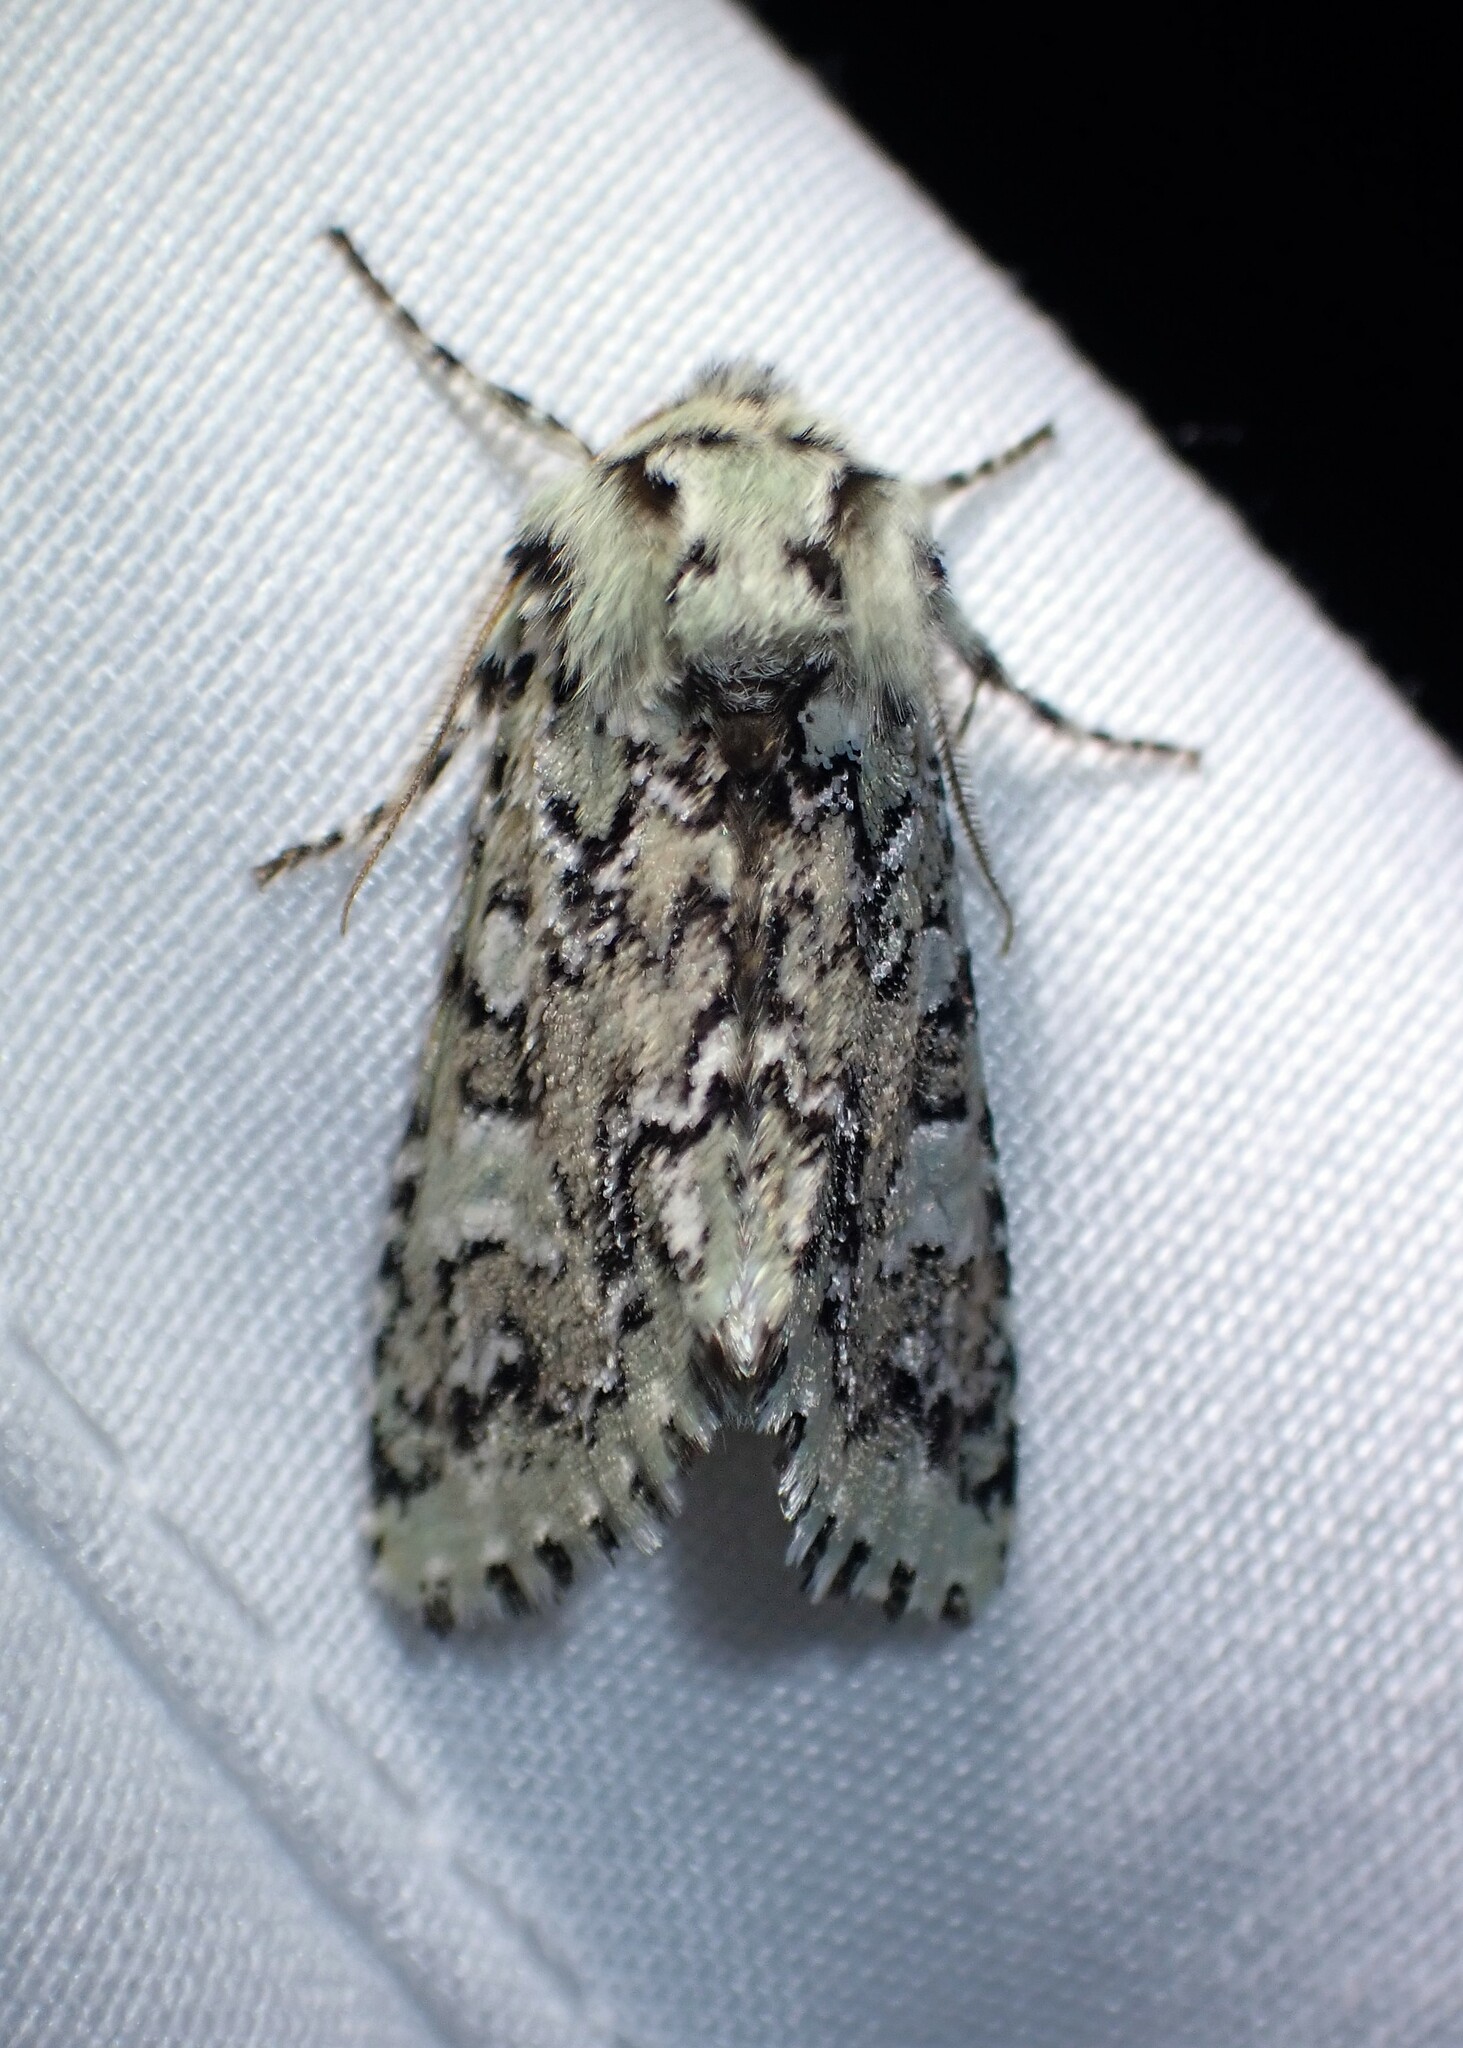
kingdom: Animalia
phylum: Arthropoda
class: Insecta
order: Lepidoptera
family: Noctuidae
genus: Feralia
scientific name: Feralia jocosa
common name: Joker
